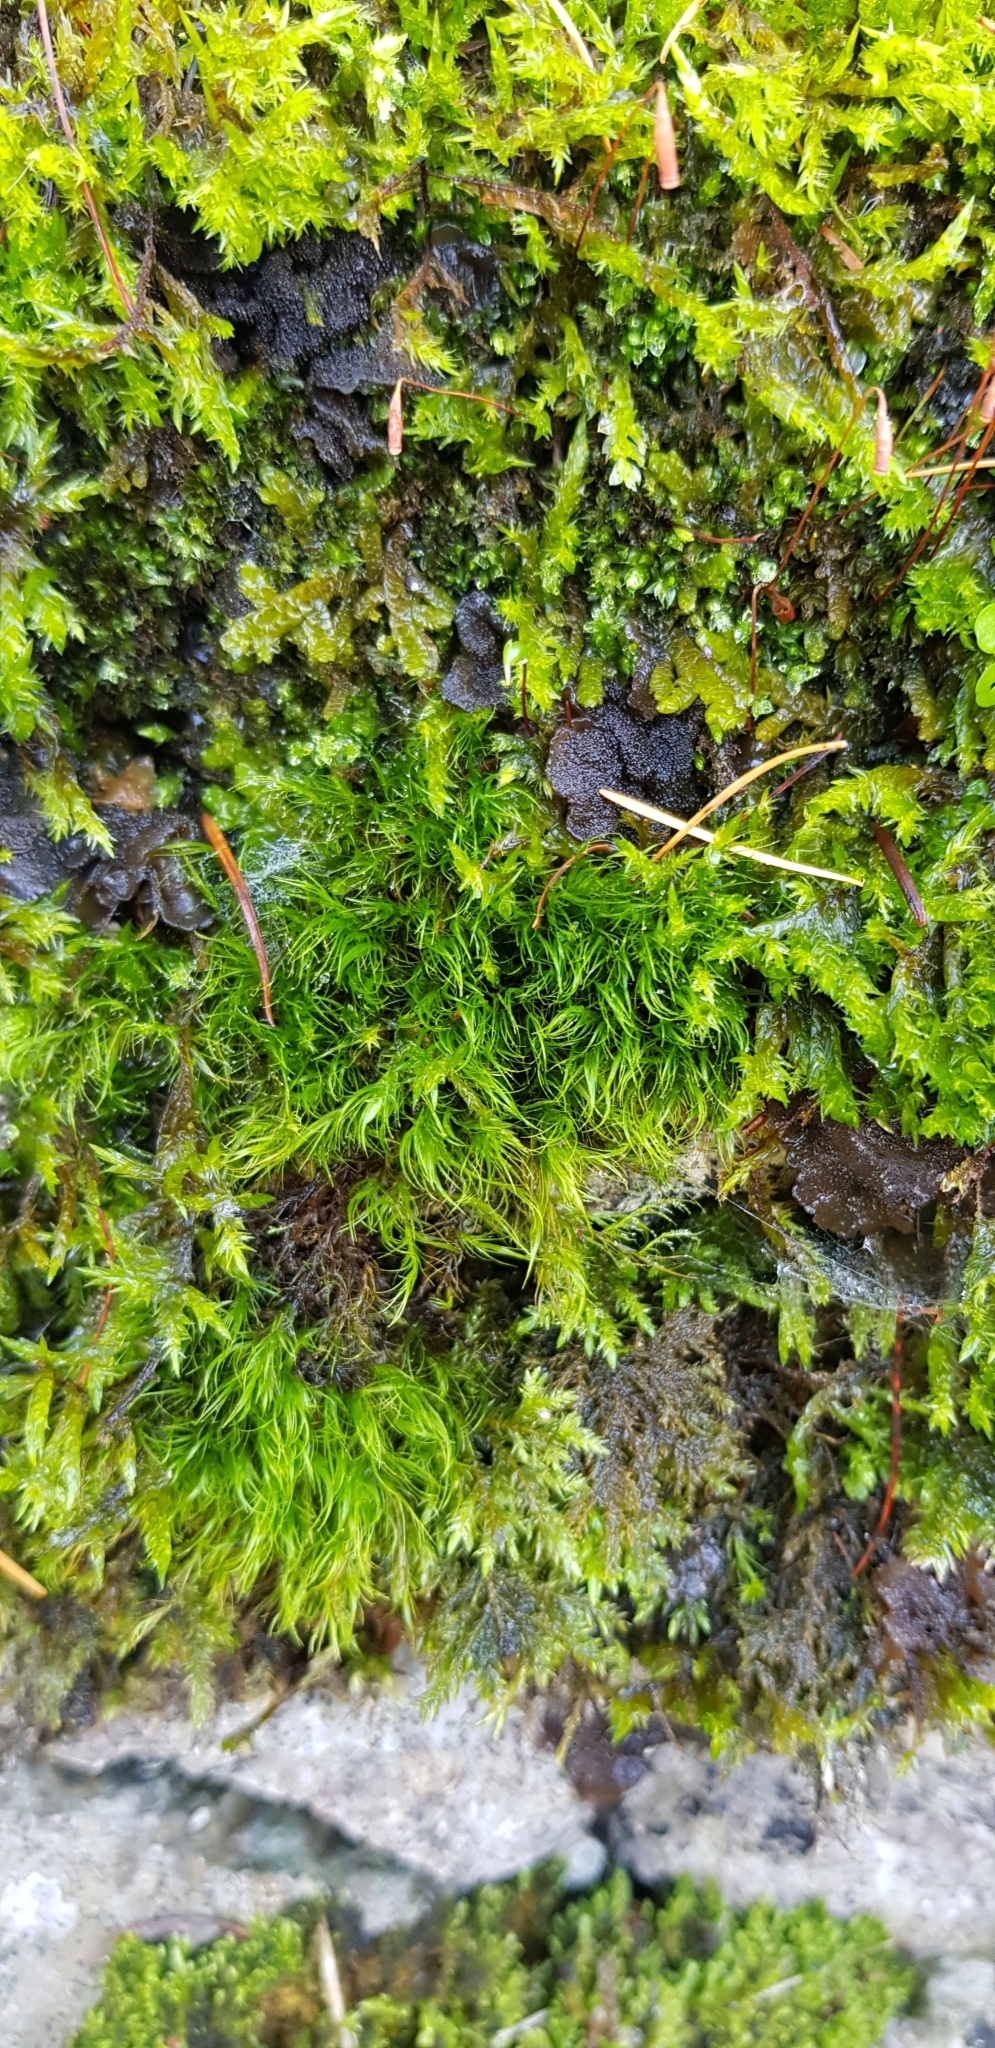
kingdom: Plantae
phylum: Bryophyta
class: Bryopsida
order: Scouleriales
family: Flexitrichaceae
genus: Flexitrichum
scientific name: Flexitrichum gracile
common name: Slender ditrichum
